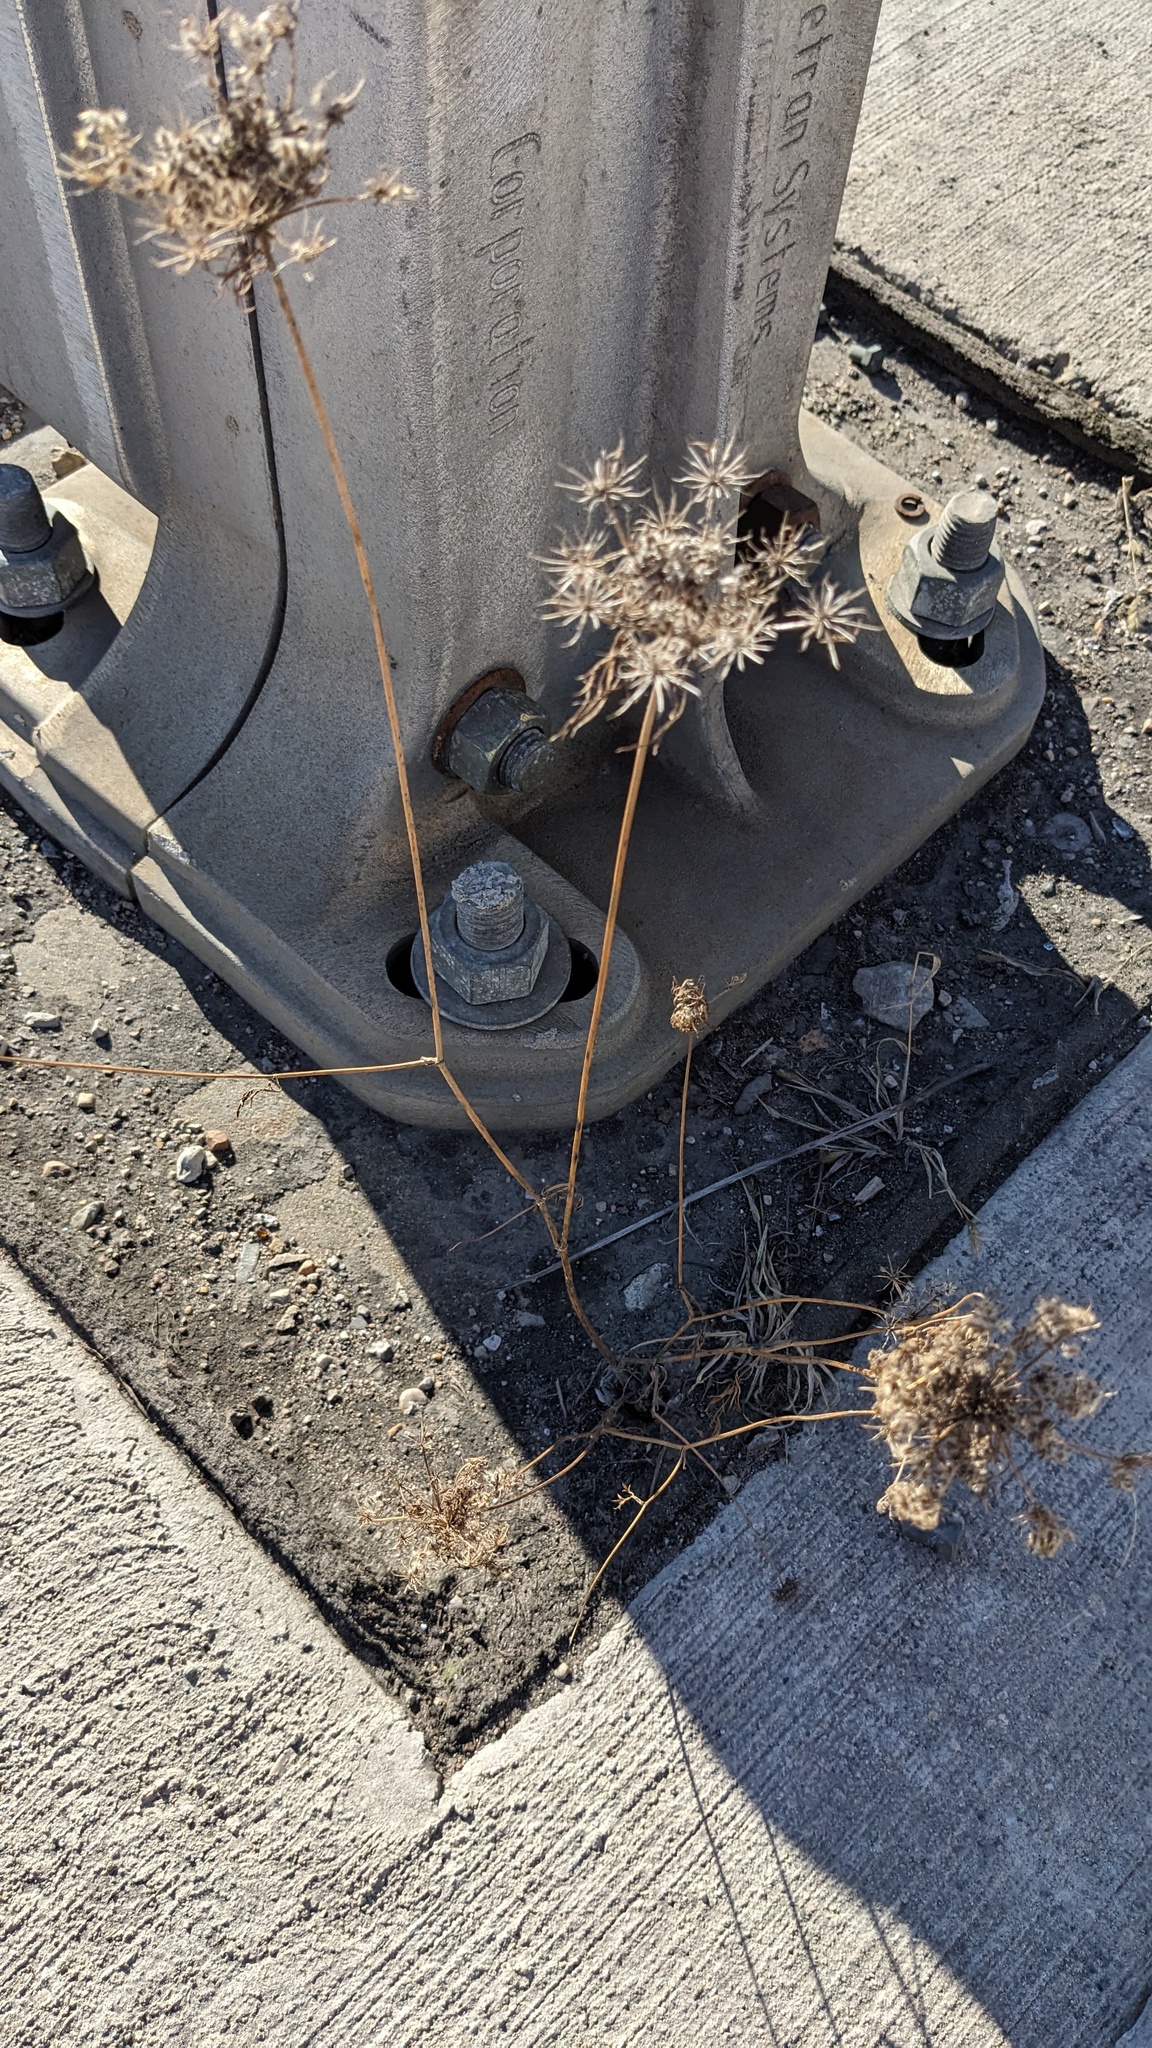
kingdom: Plantae
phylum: Tracheophyta
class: Magnoliopsida
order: Apiales
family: Apiaceae
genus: Daucus
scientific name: Daucus carota
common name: Wild carrot
